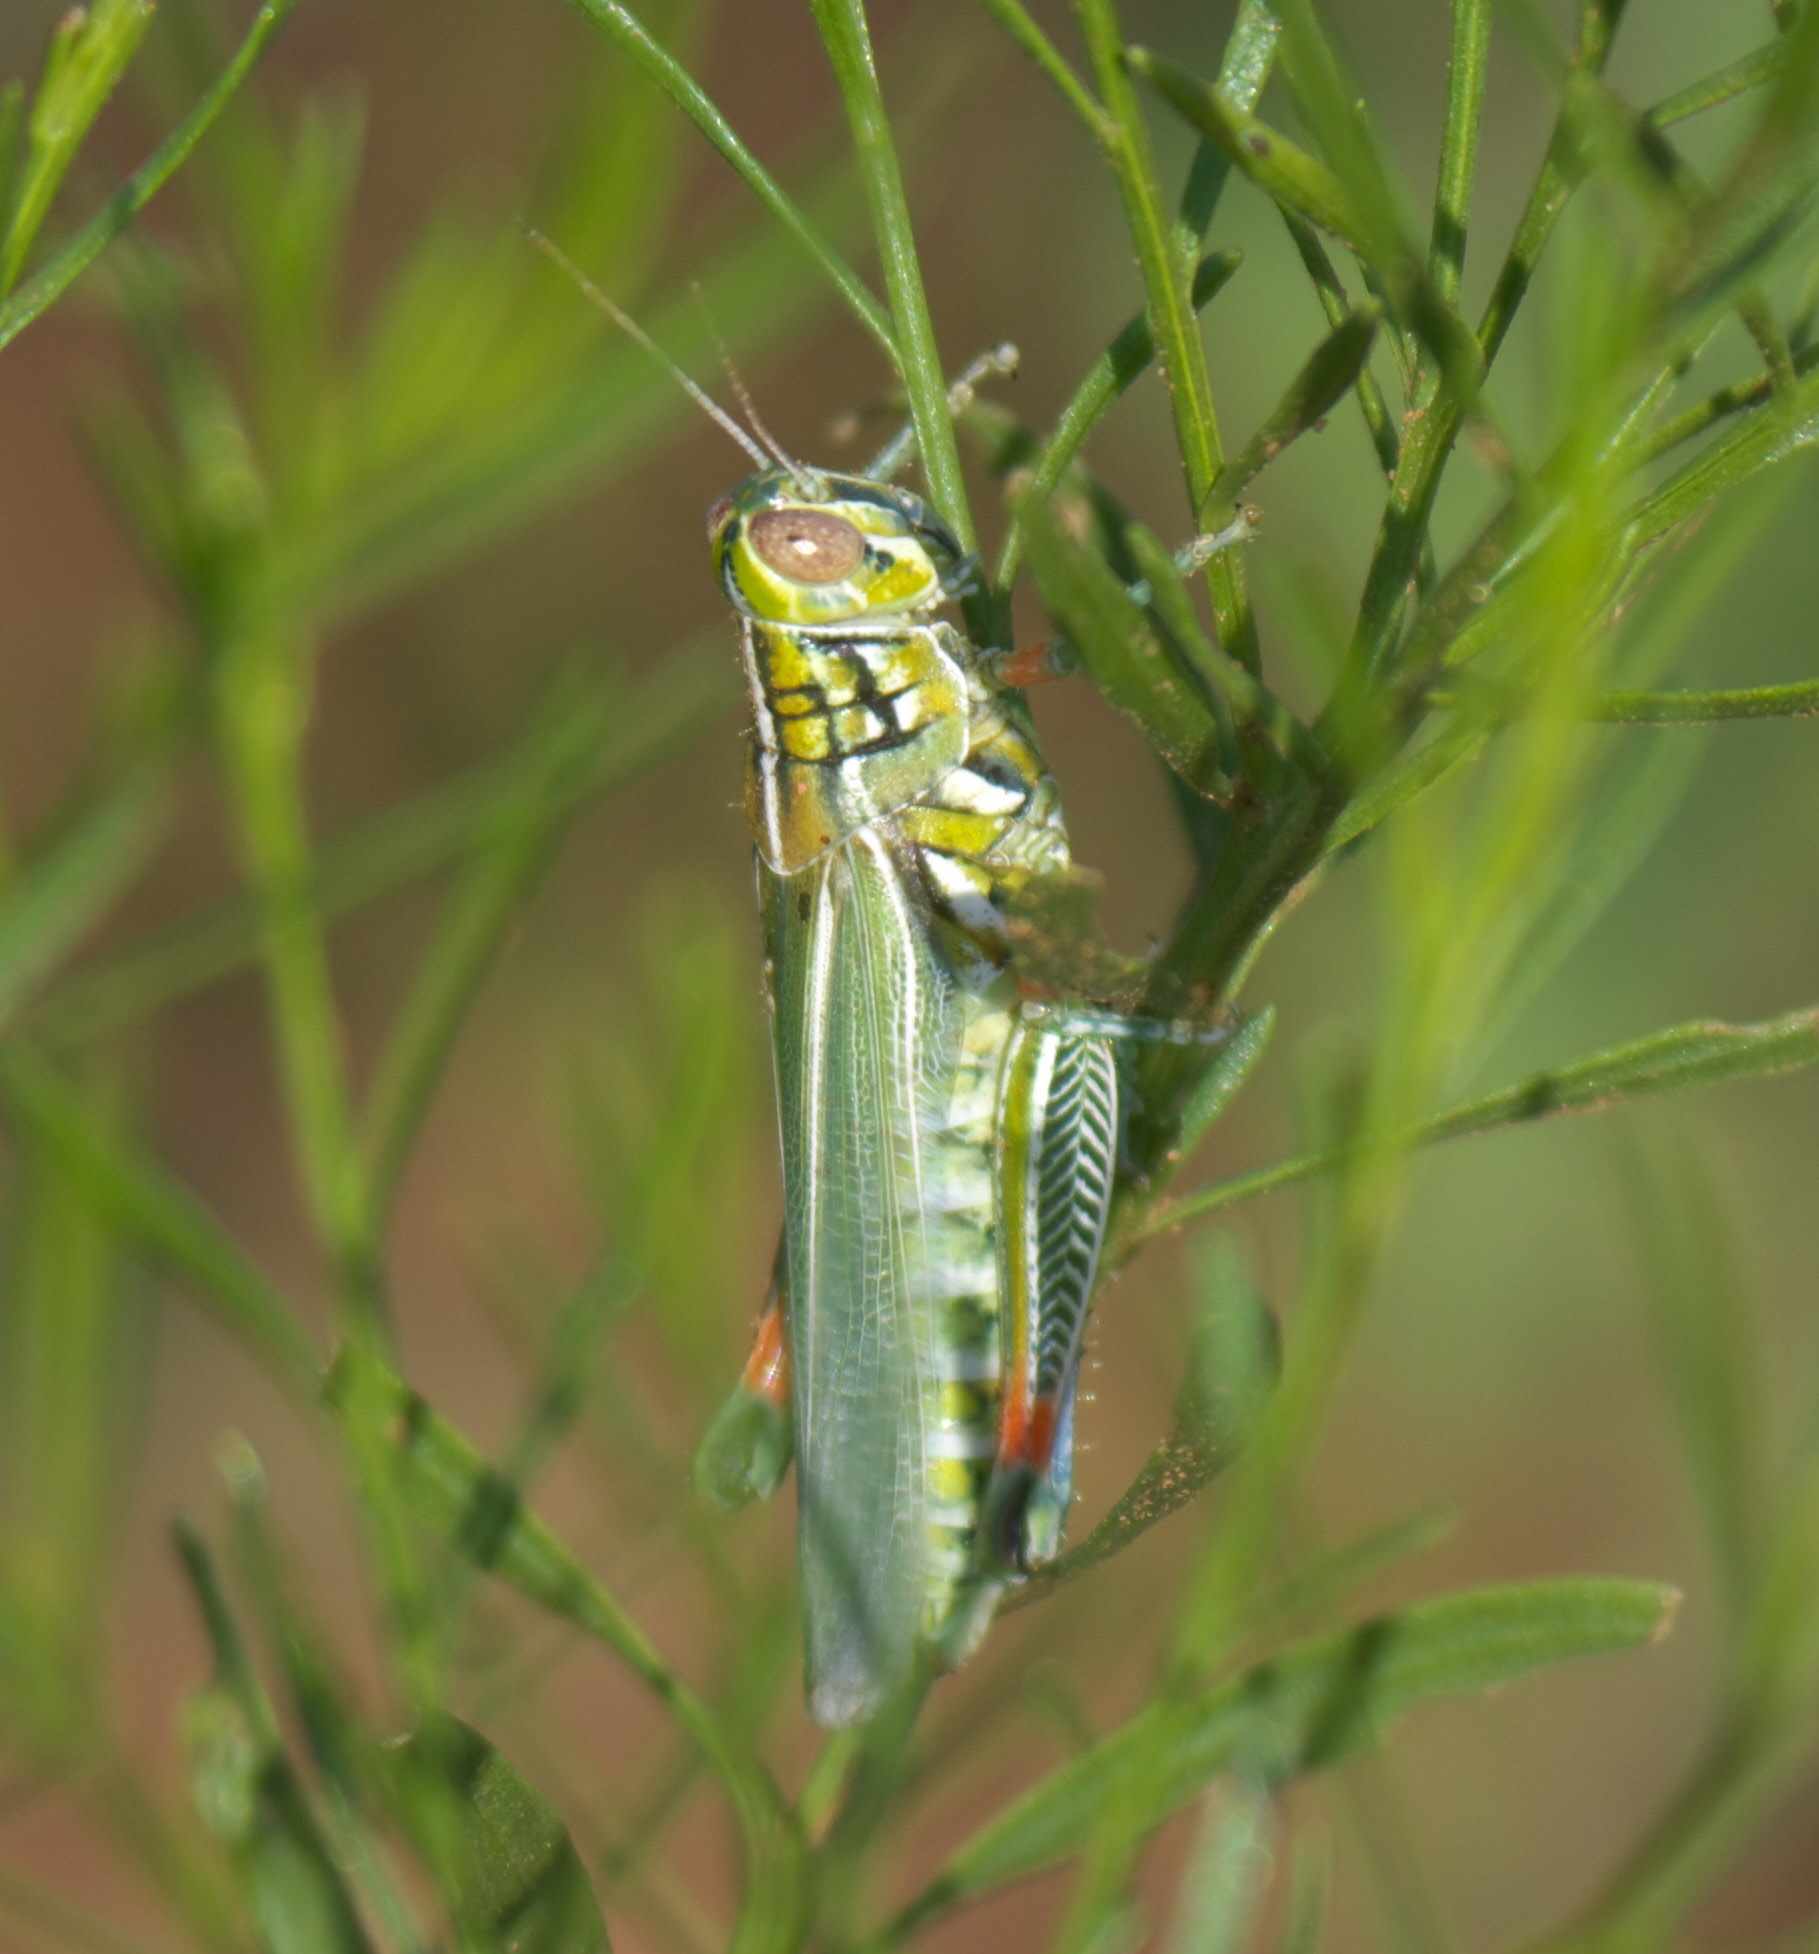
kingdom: Animalia
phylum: Arthropoda
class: Insecta
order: Orthoptera
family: Acrididae
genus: Hesperotettix
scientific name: Hesperotettix viridis
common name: Meadow purple-striped grasshopper
